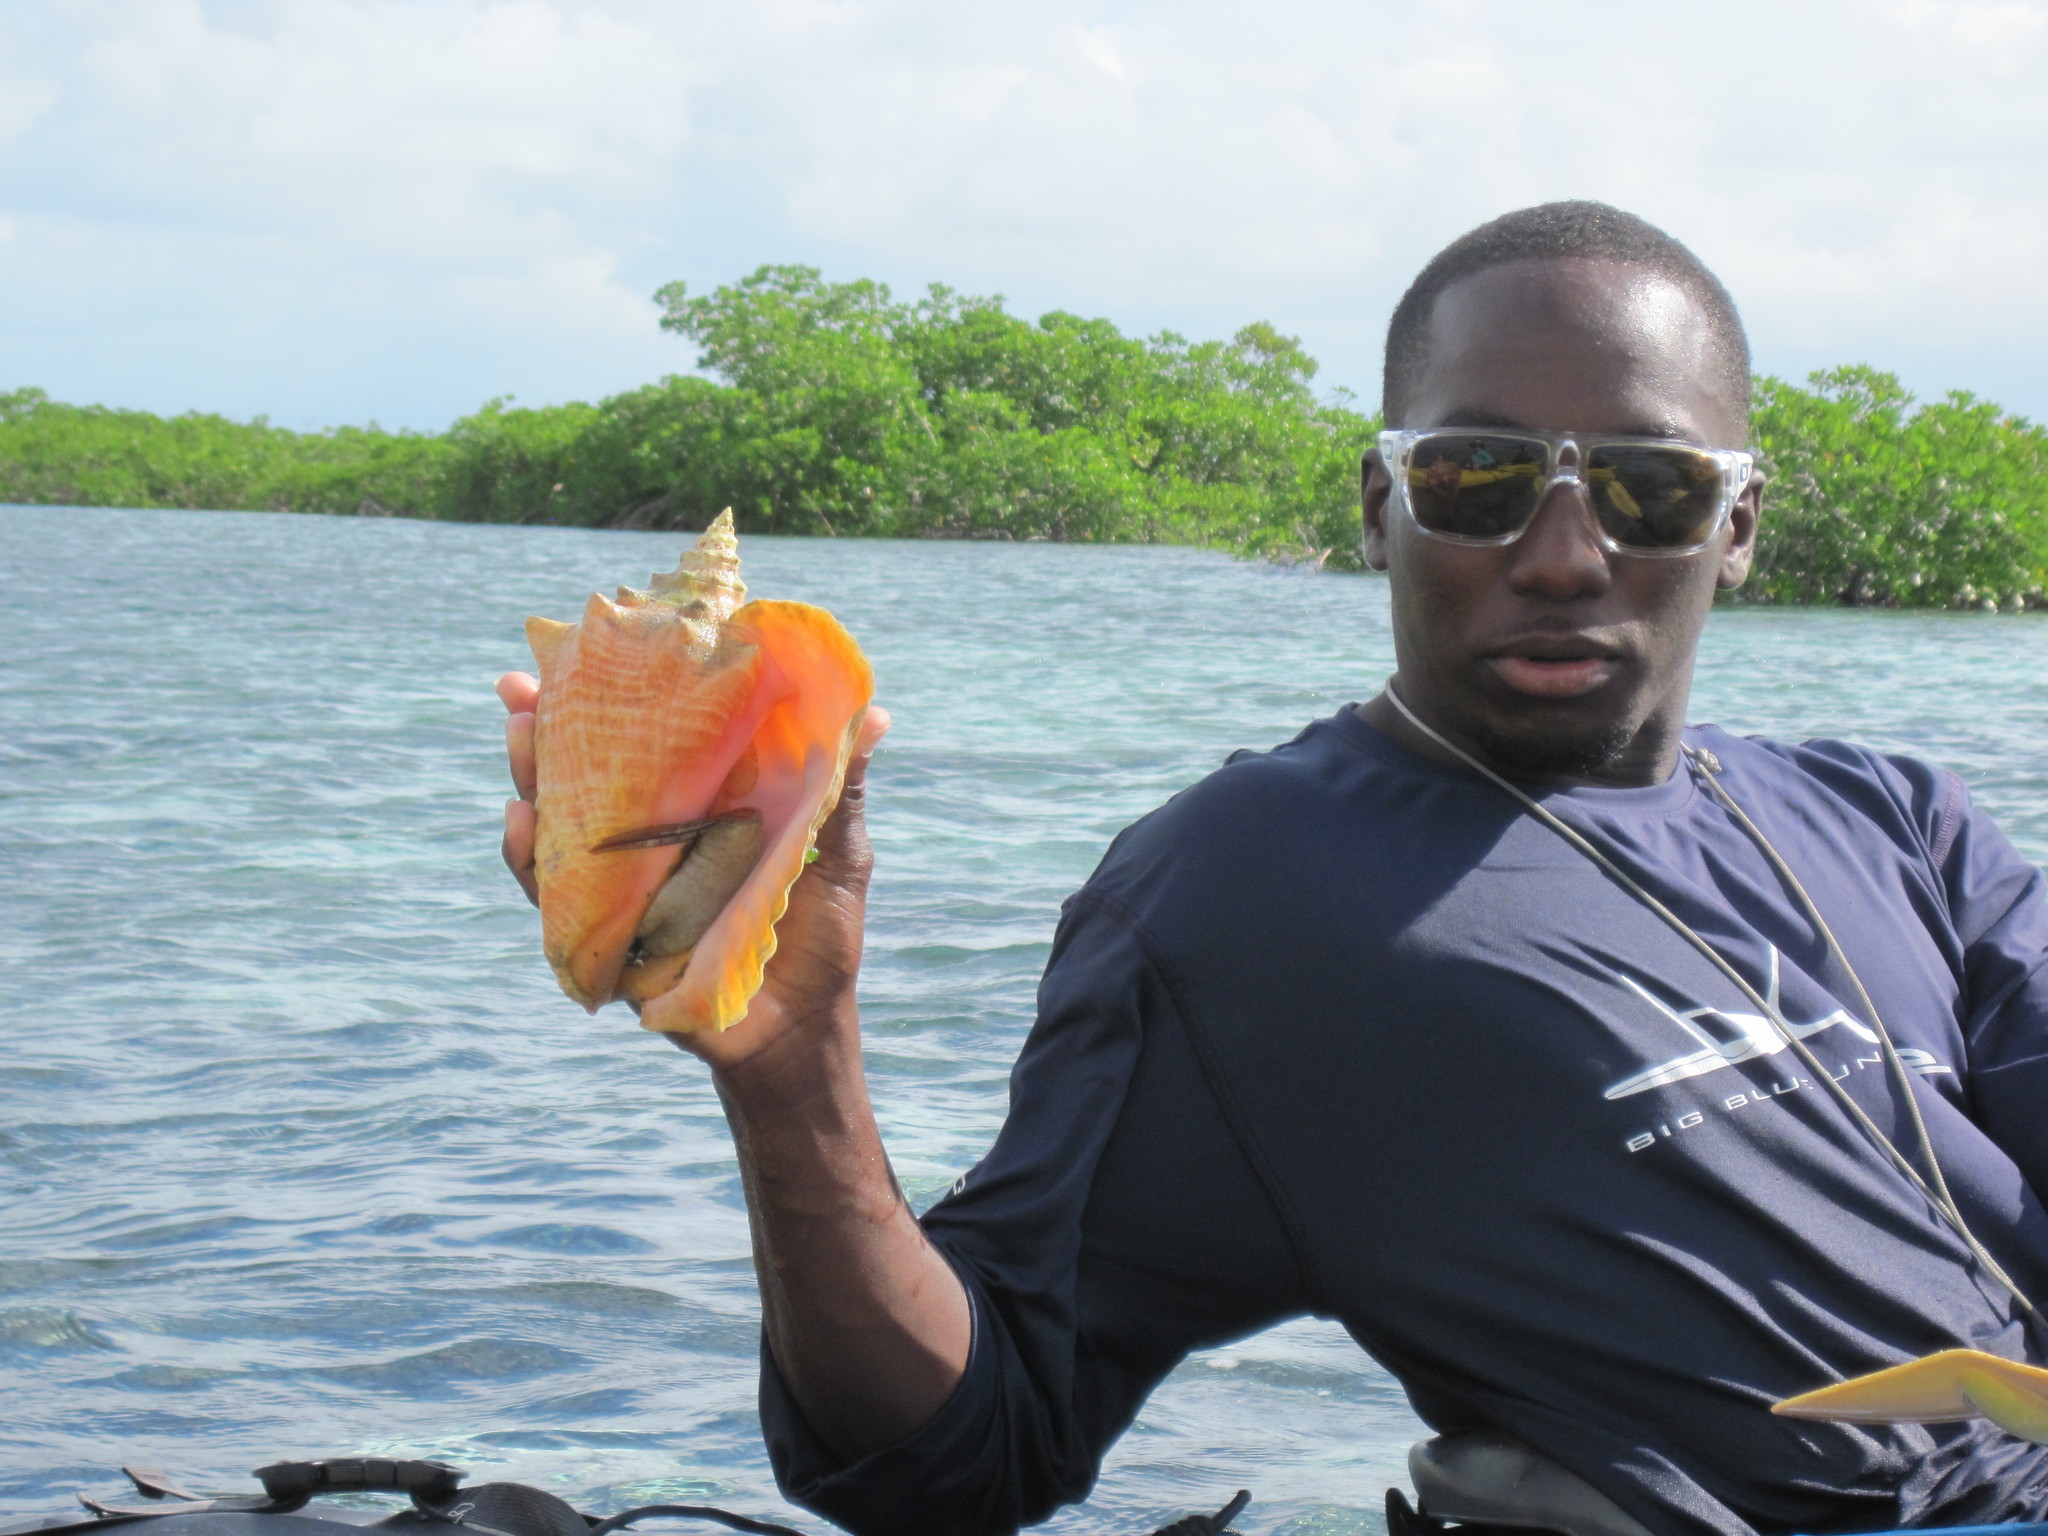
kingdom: Animalia
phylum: Mollusca
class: Gastropoda
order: Littorinimorpha
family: Strombidae
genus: Aliger
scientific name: Aliger gigas
